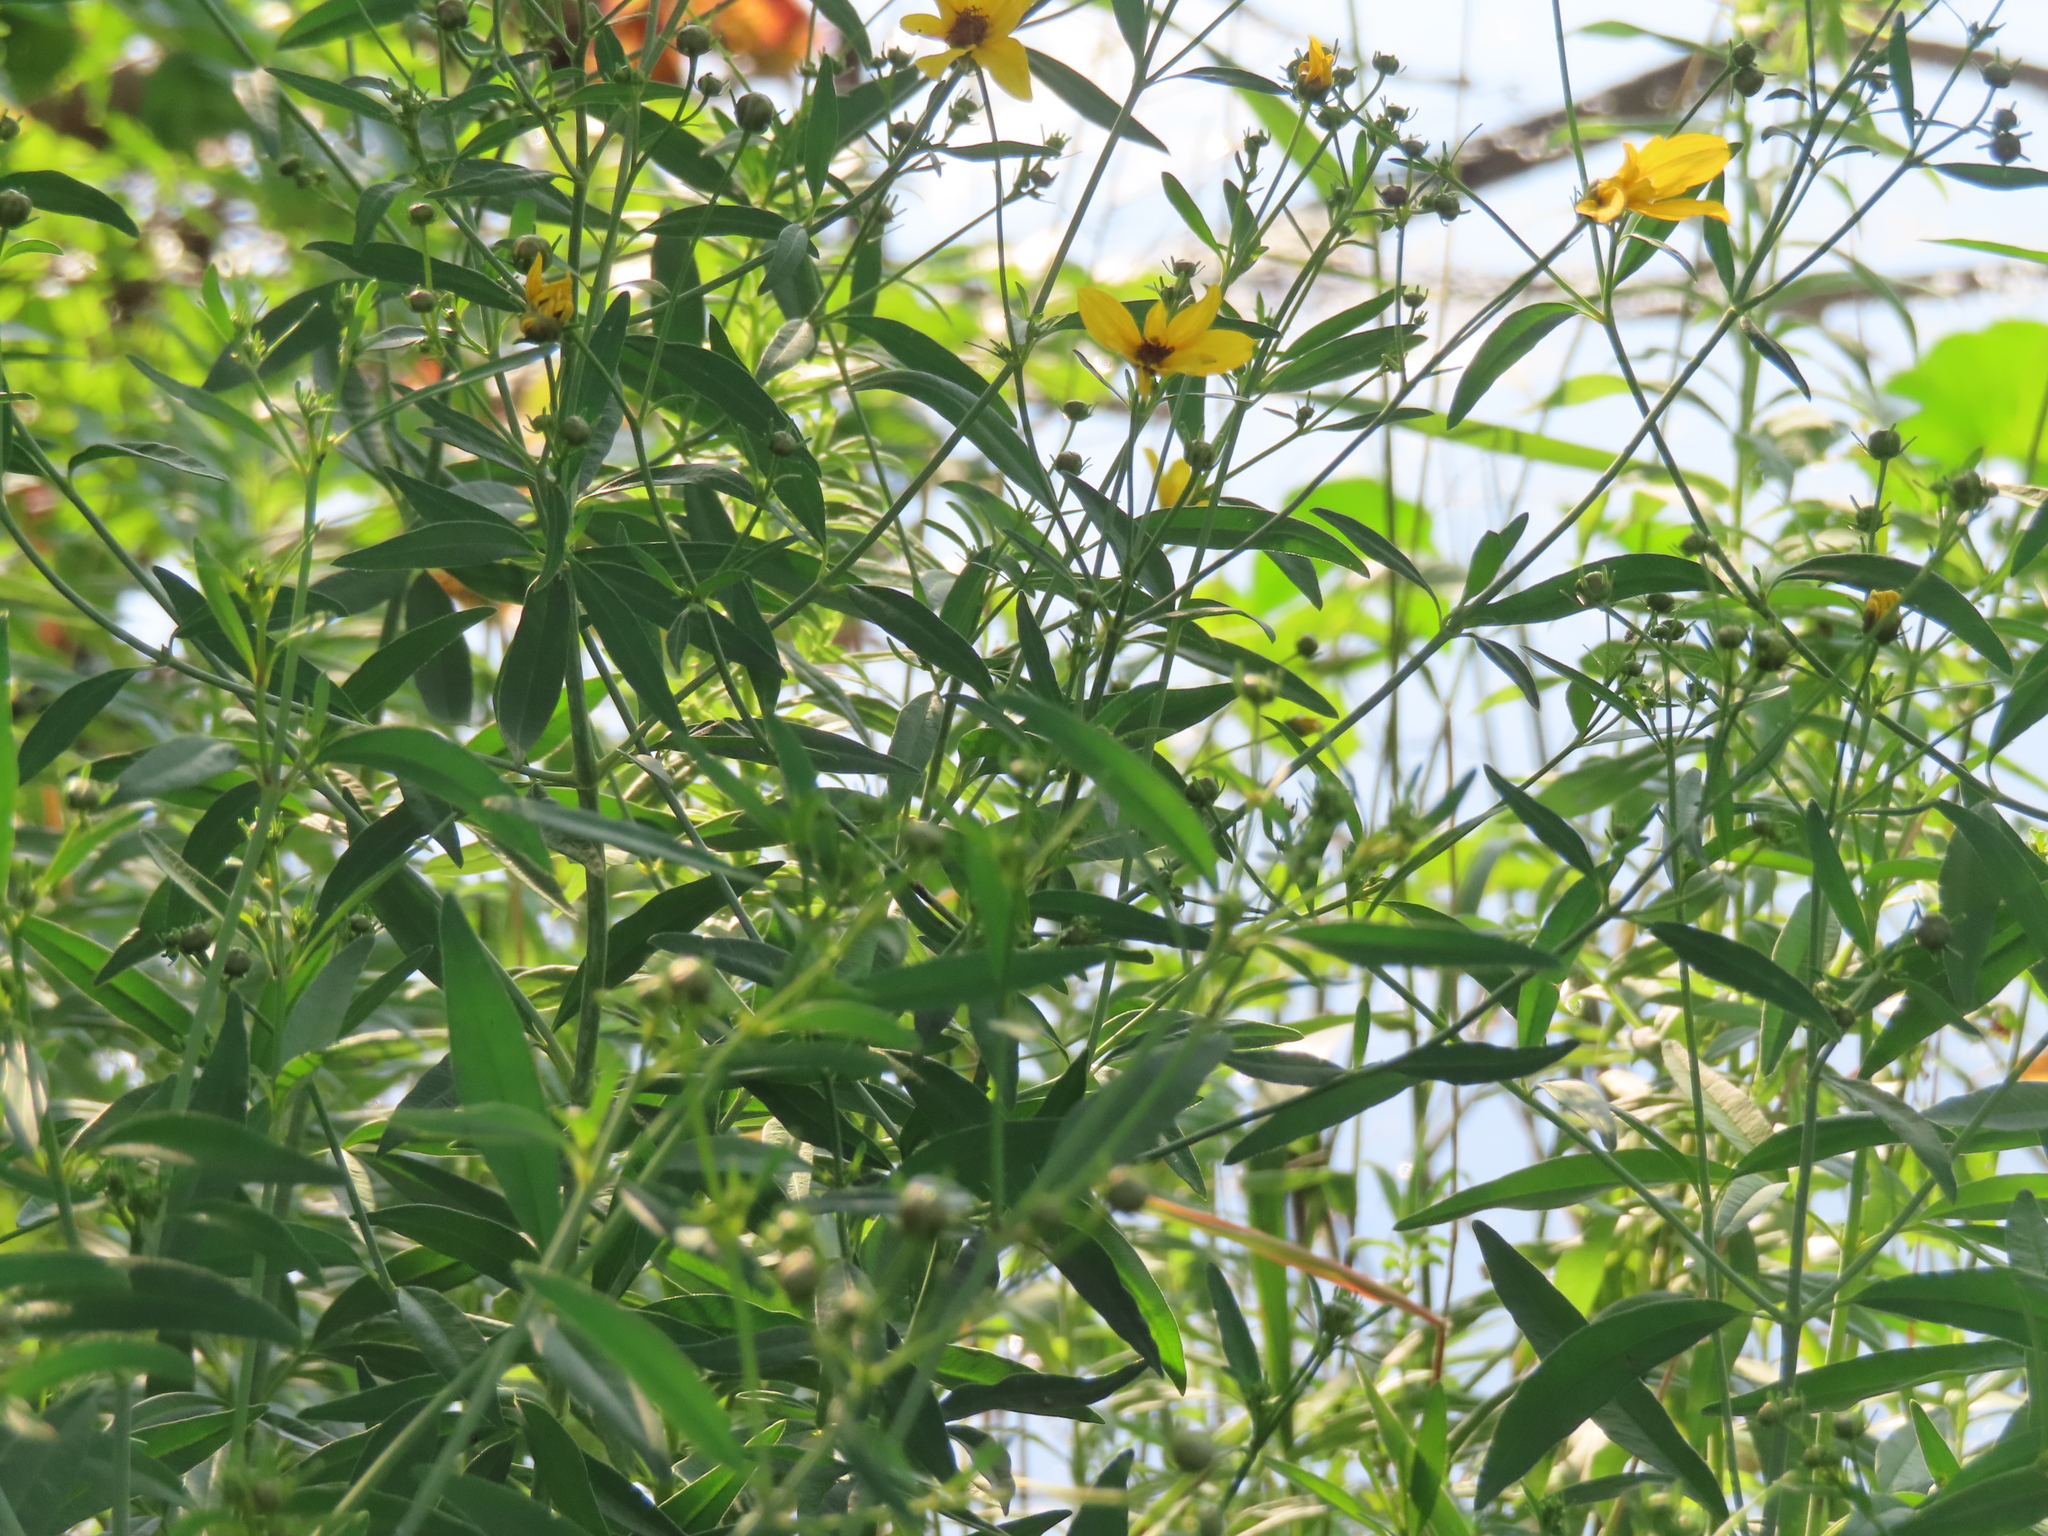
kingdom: Plantae
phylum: Tracheophyta
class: Magnoliopsida
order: Asterales
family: Asteraceae
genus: Coreopsis
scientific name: Coreopsis tripteris
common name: Tall coreopsis
